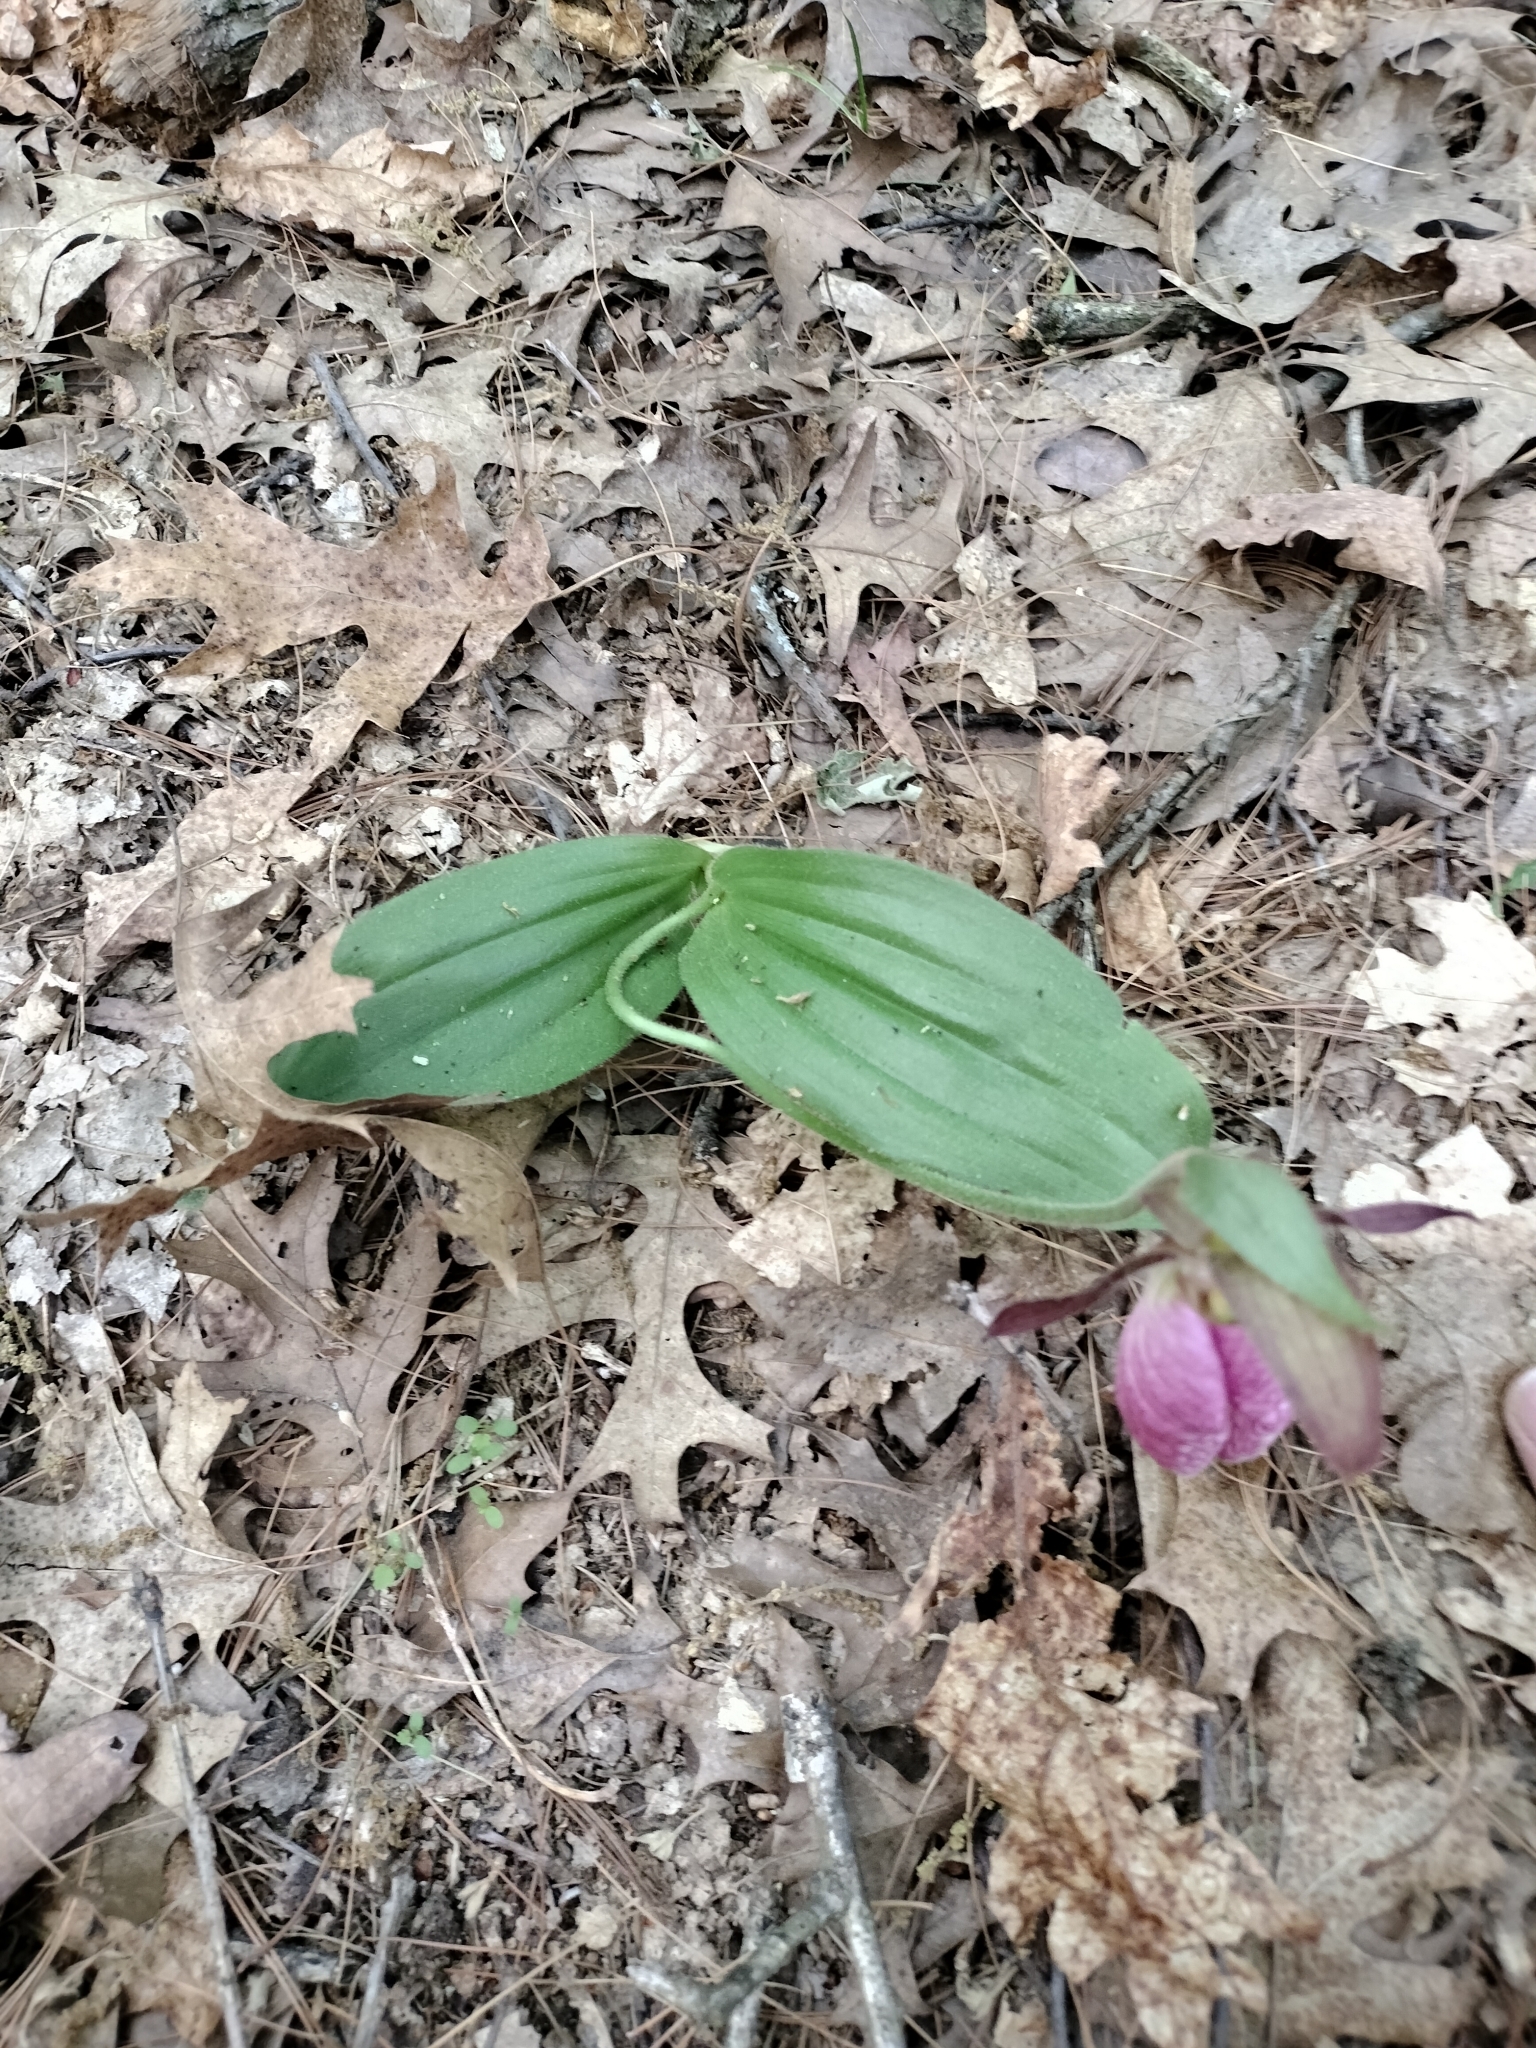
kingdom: Plantae
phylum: Tracheophyta
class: Liliopsida
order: Asparagales
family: Orchidaceae
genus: Cypripedium
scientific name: Cypripedium acaule
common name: Pink lady's-slipper
